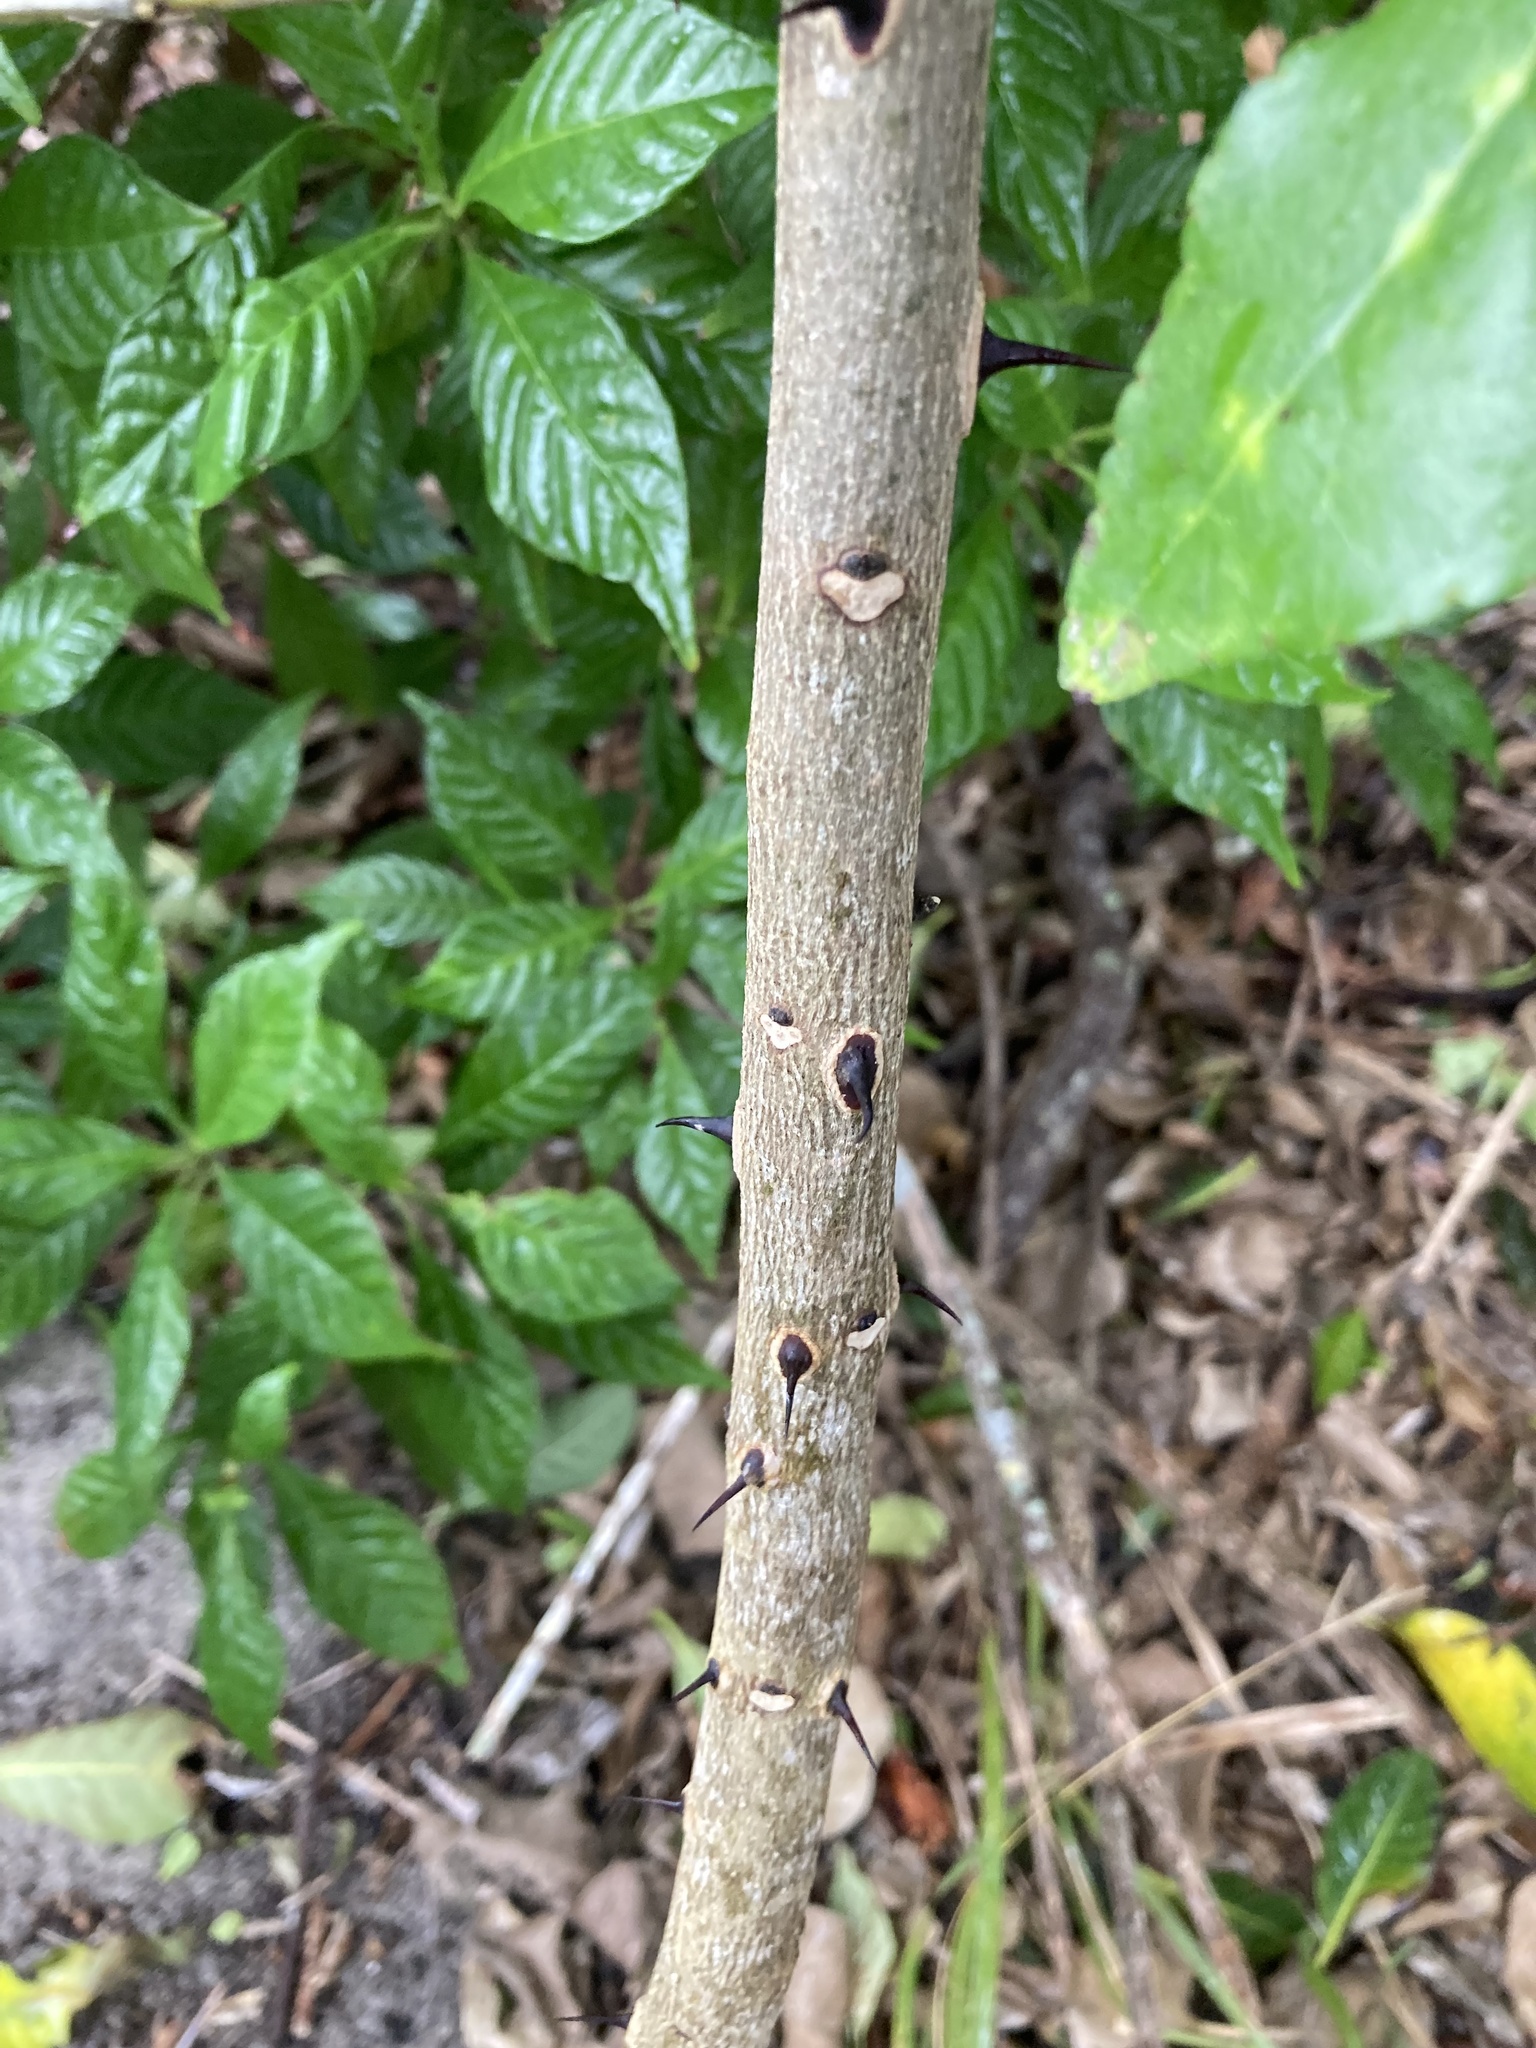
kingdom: Plantae
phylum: Tracheophyta
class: Magnoliopsida
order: Sapindales
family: Rutaceae
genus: Zanthoxylum
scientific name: Zanthoxylum clava-herculis
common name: Hercules'-club
